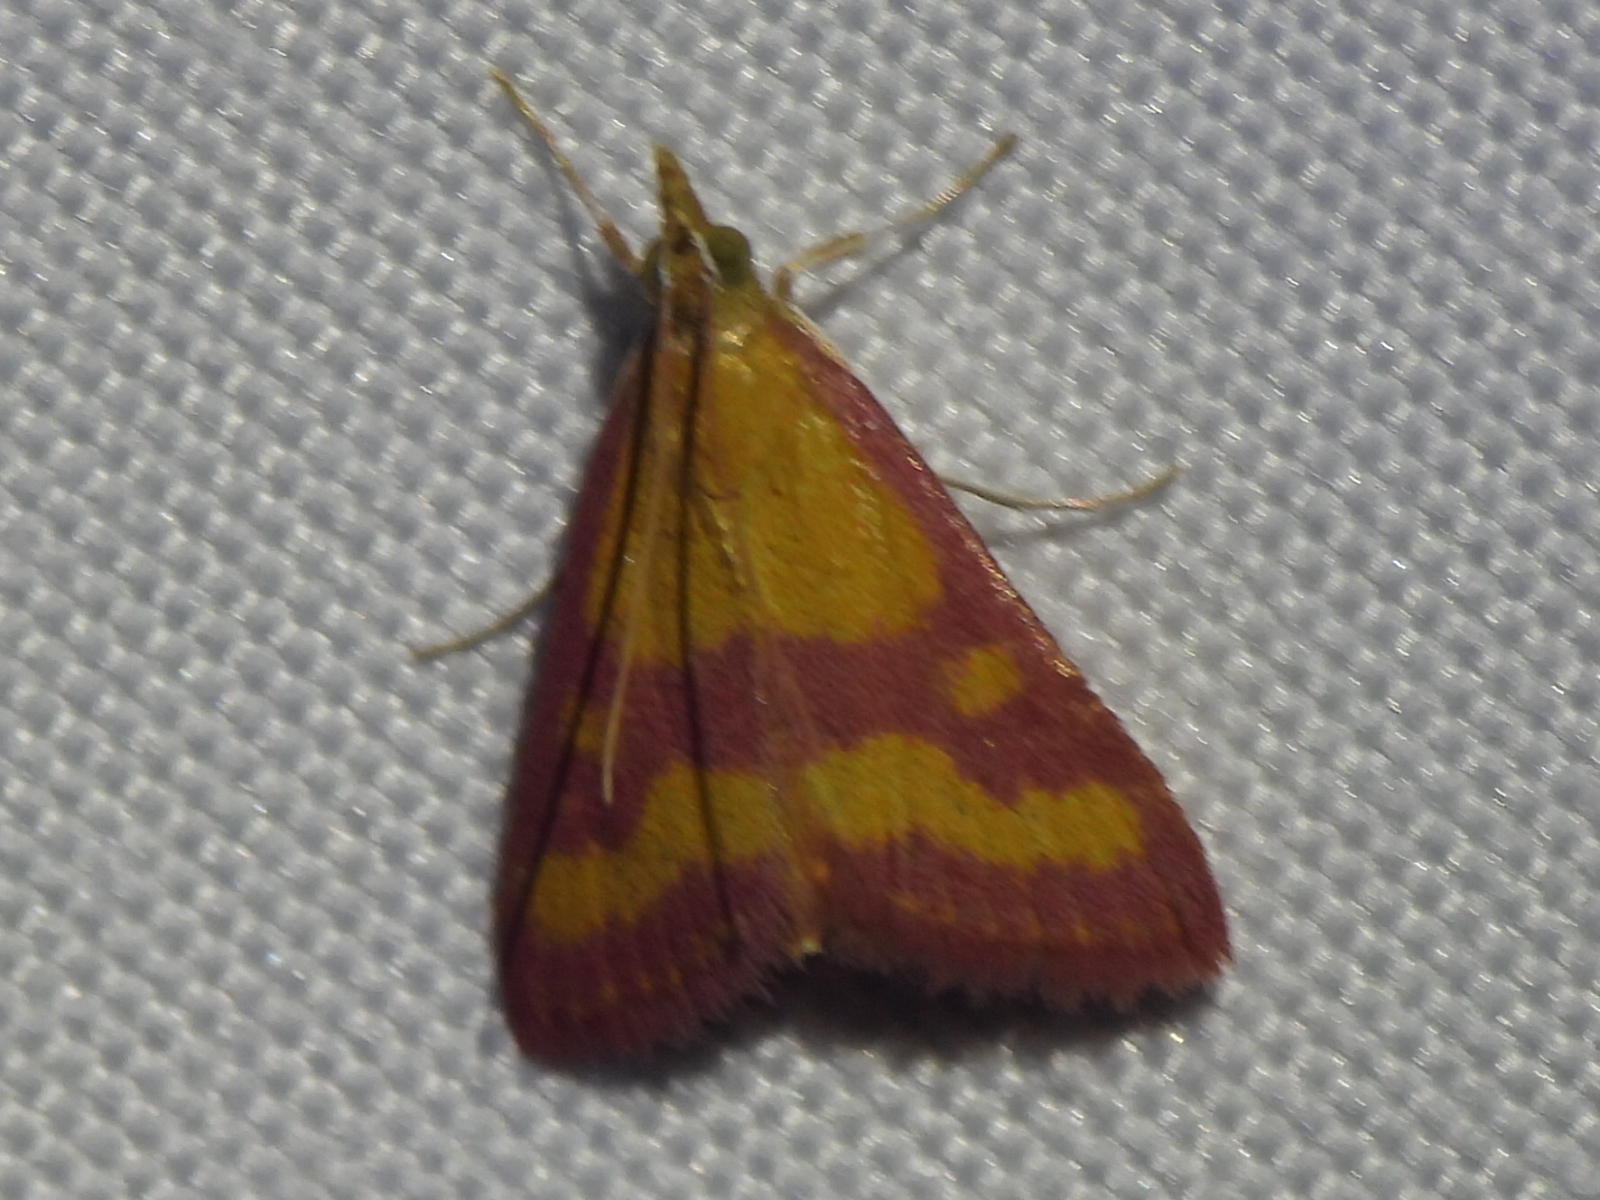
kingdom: Animalia
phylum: Arthropoda
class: Insecta
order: Lepidoptera
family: Crambidae
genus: Pyrausta
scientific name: Pyrausta laticlavia
